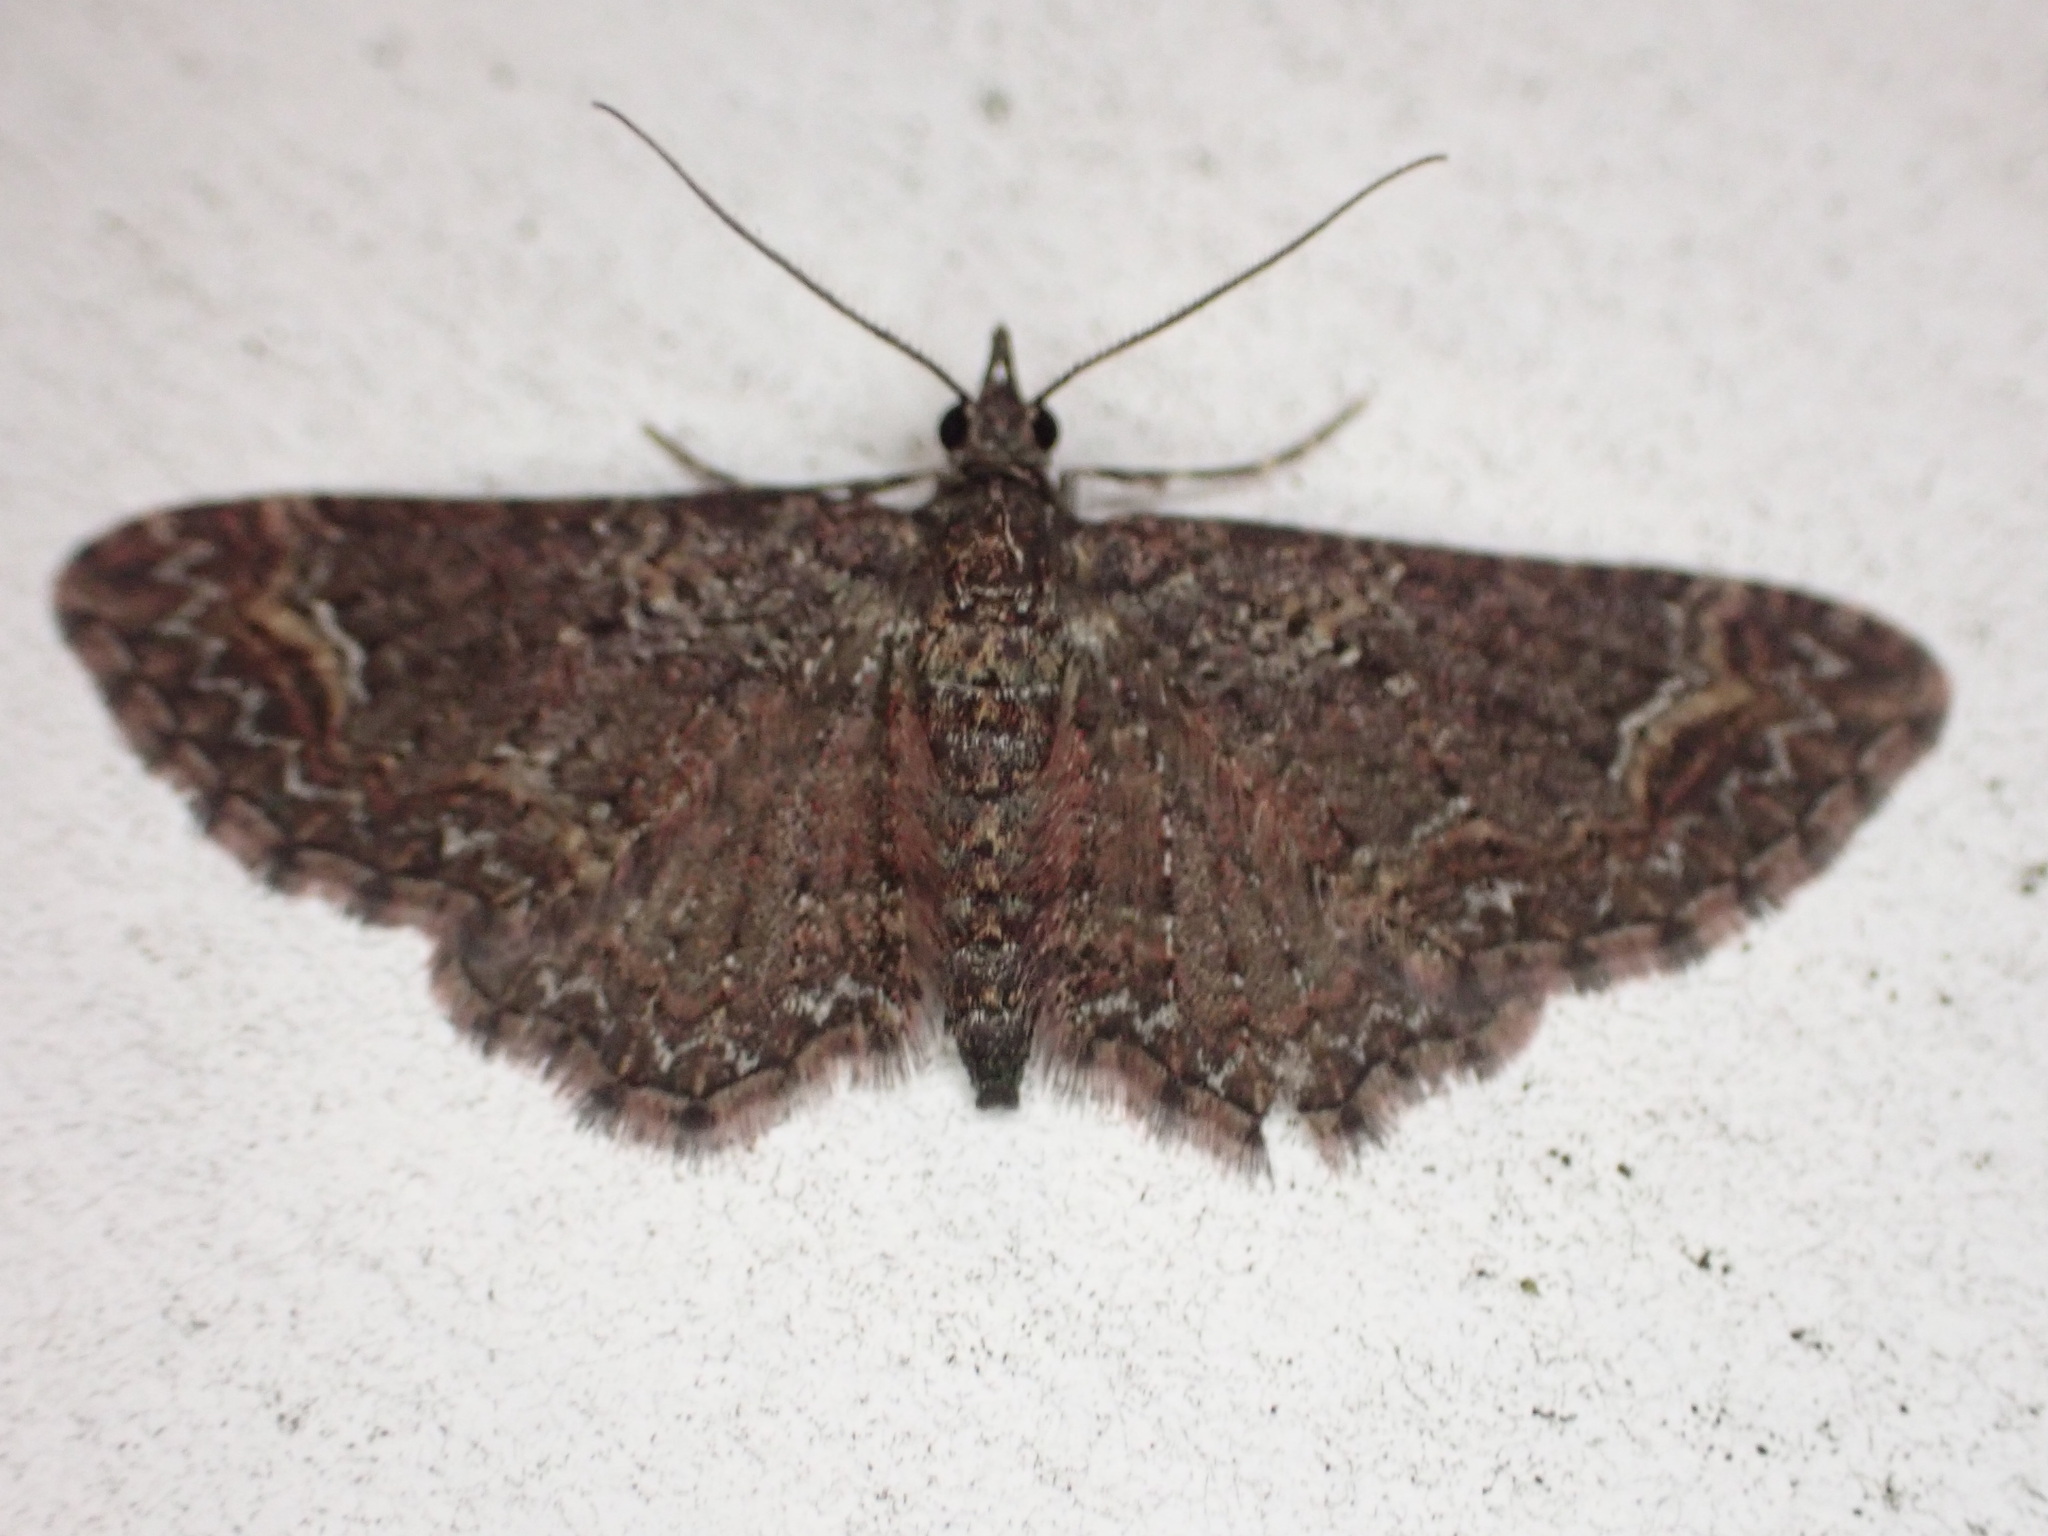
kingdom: Animalia
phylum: Arthropoda
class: Insecta
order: Lepidoptera
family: Geometridae
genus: Pasiphilodes
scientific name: Pasiphilodes testulata
